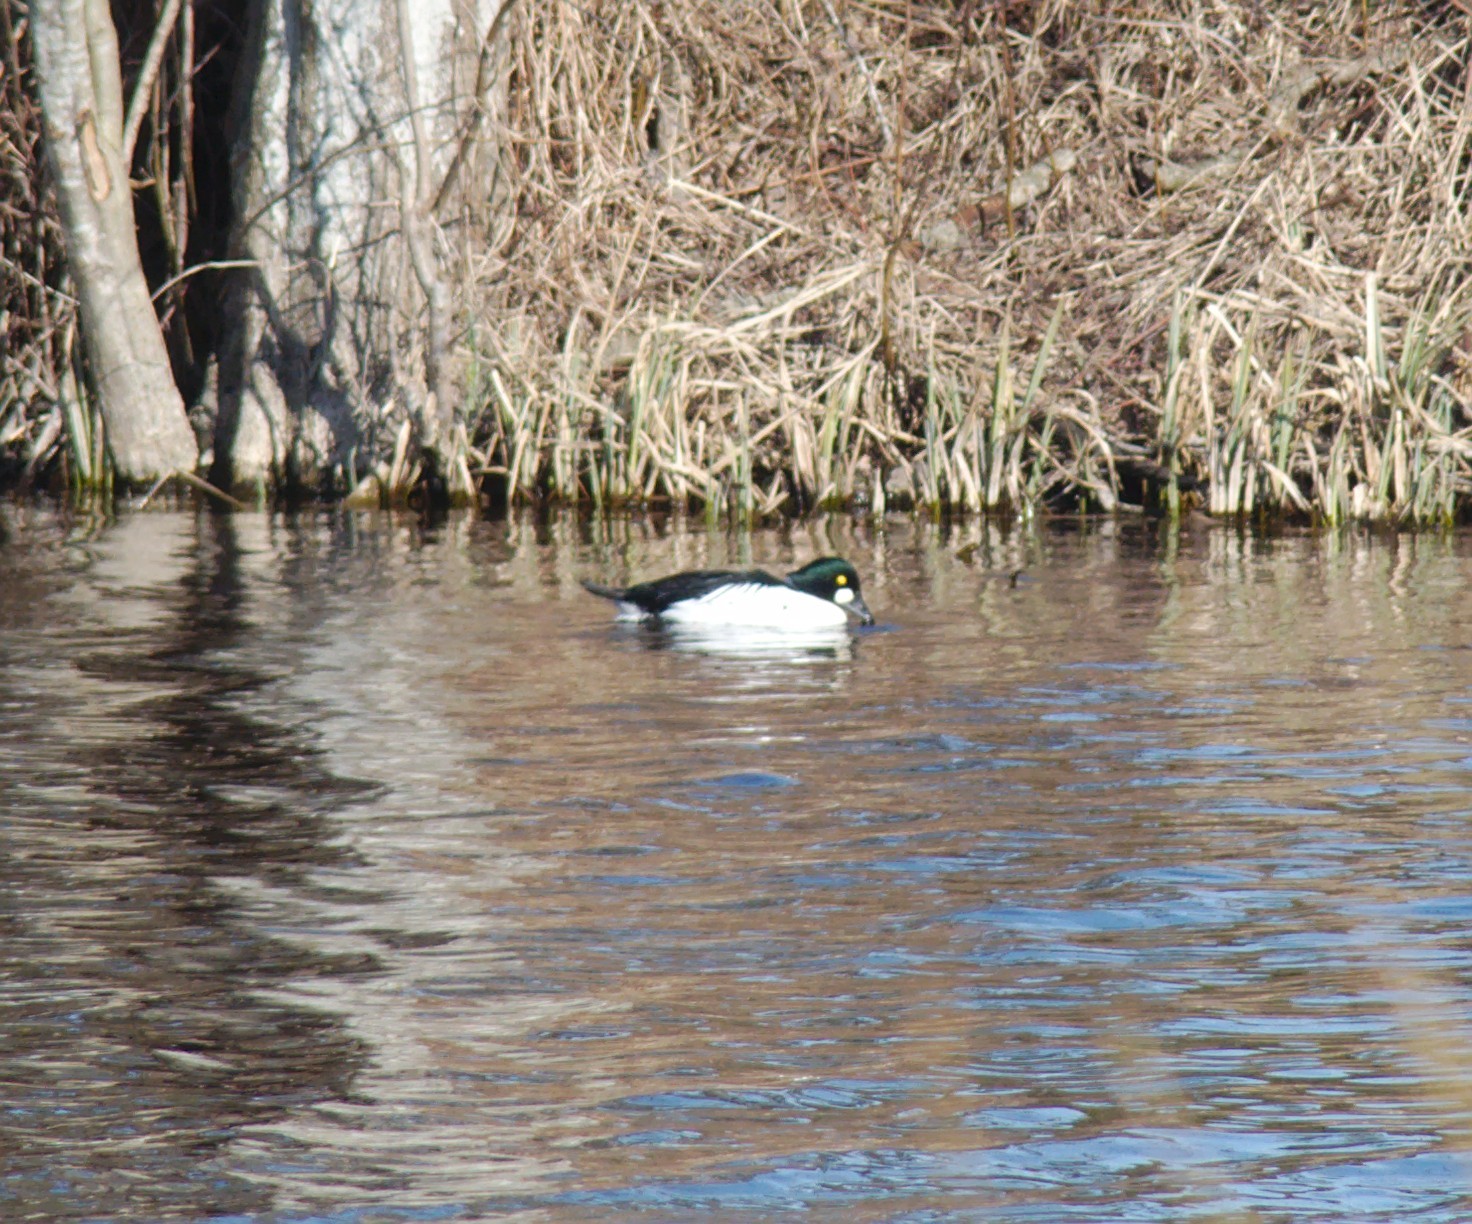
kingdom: Animalia
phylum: Chordata
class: Aves
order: Anseriformes
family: Anatidae
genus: Bucephala
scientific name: Bucephala clangula
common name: Common goldeneye
